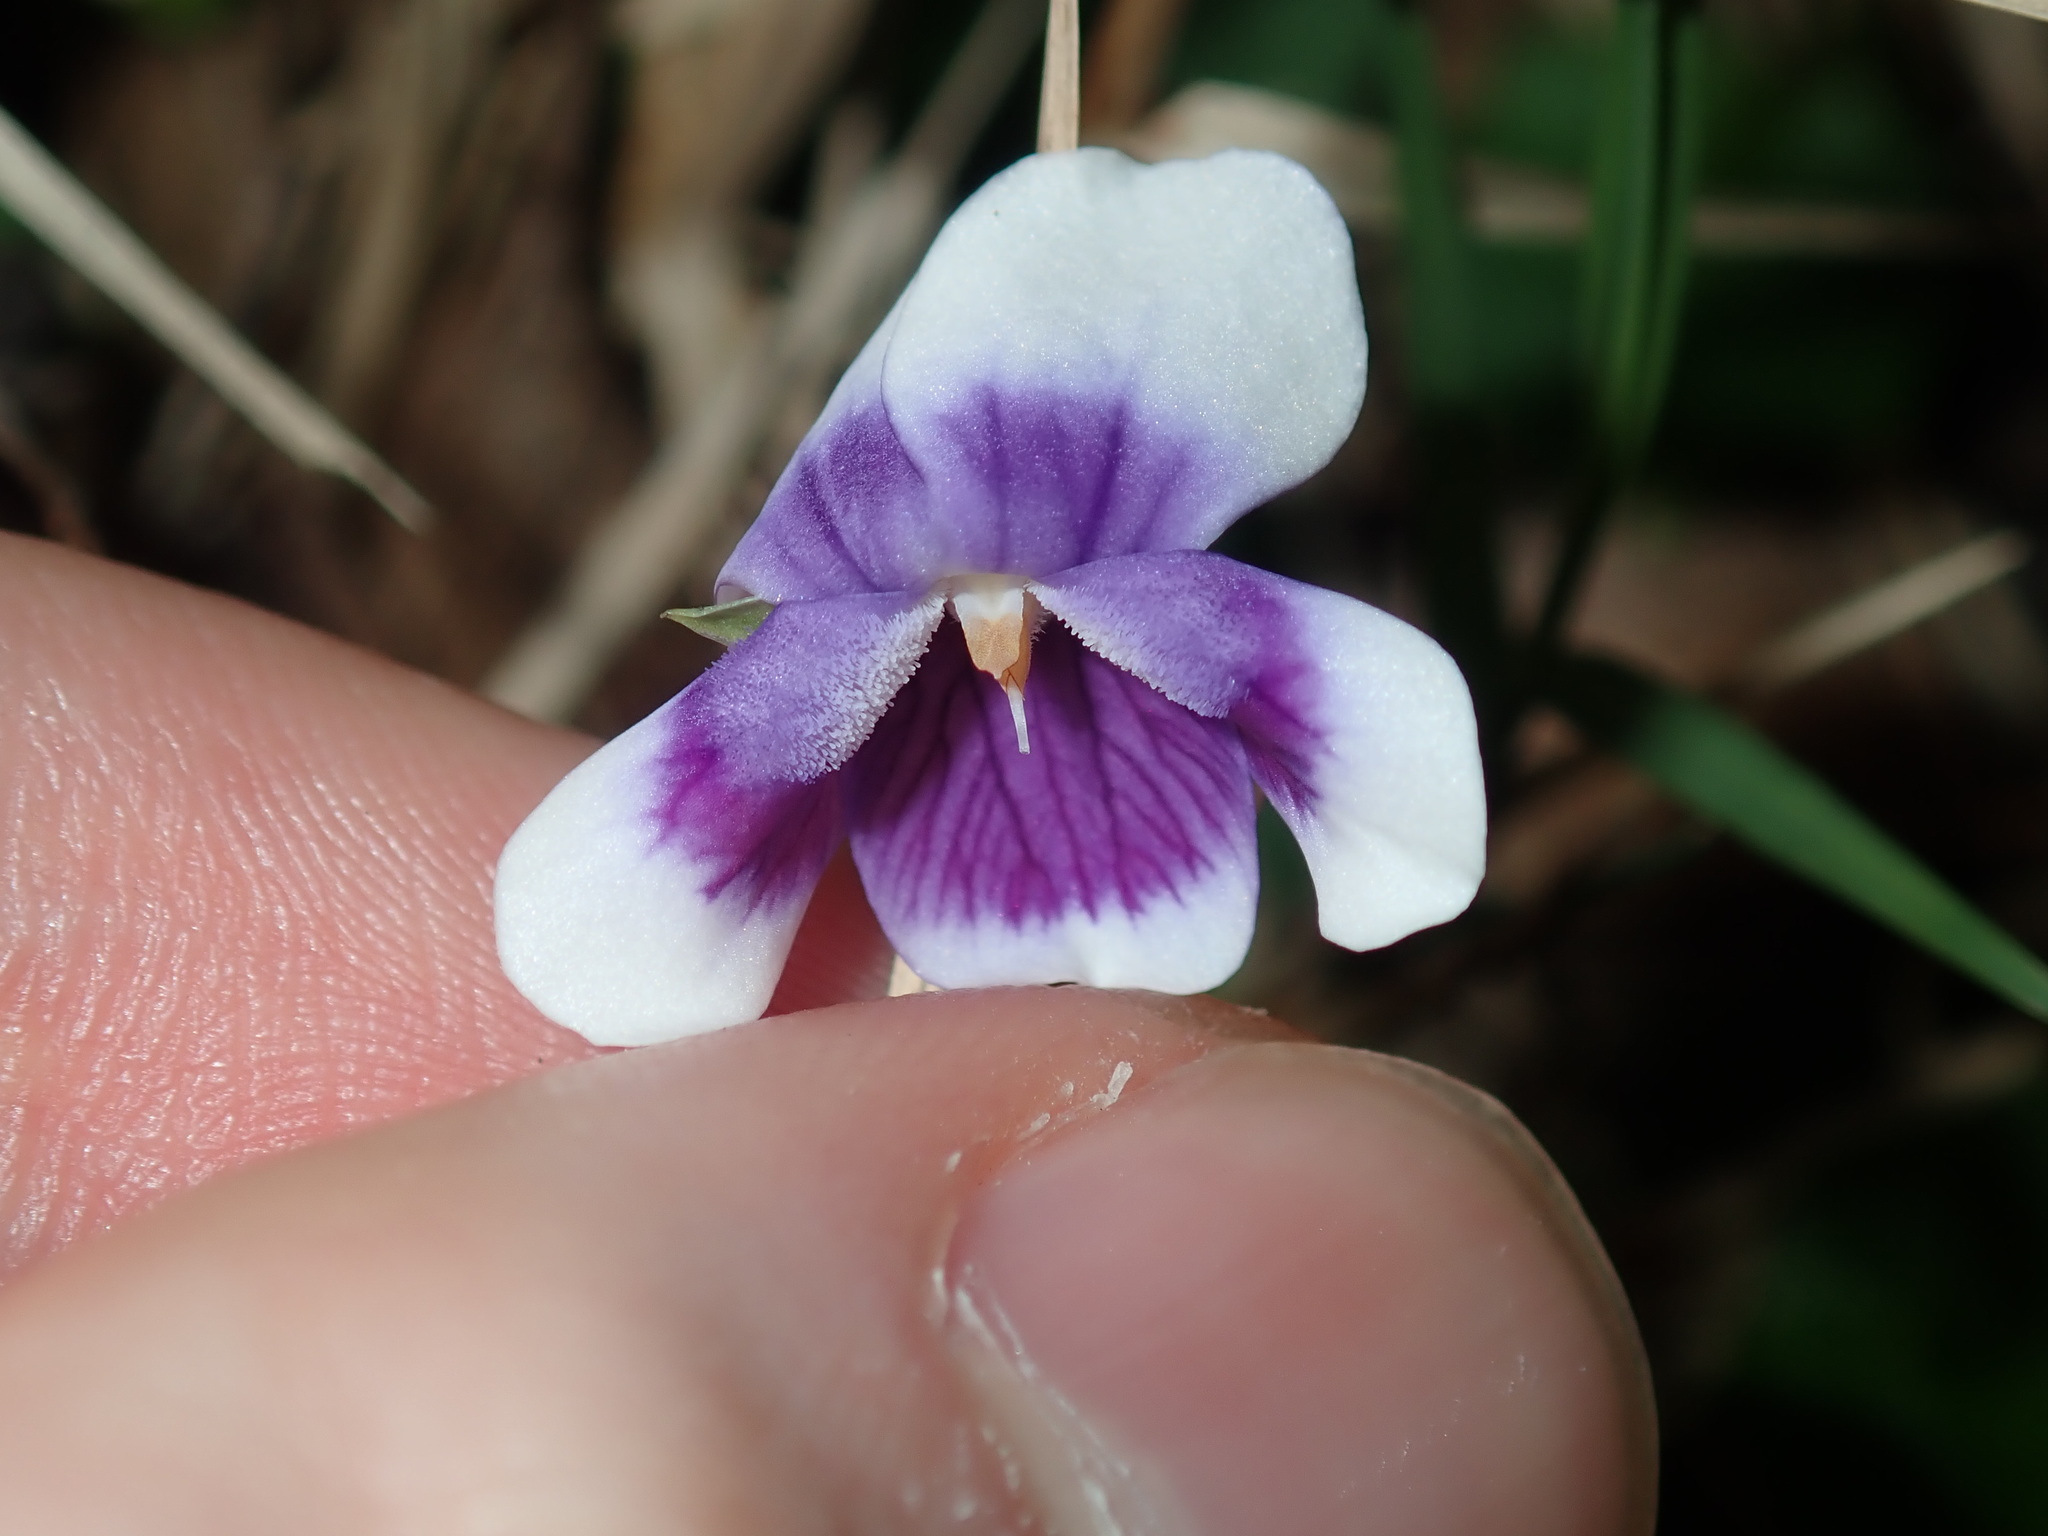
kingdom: Plantae
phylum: Tracheophyta
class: Magnoliopsida
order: Malpighiales
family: Violaceae
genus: Viola
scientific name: Viola banksii
